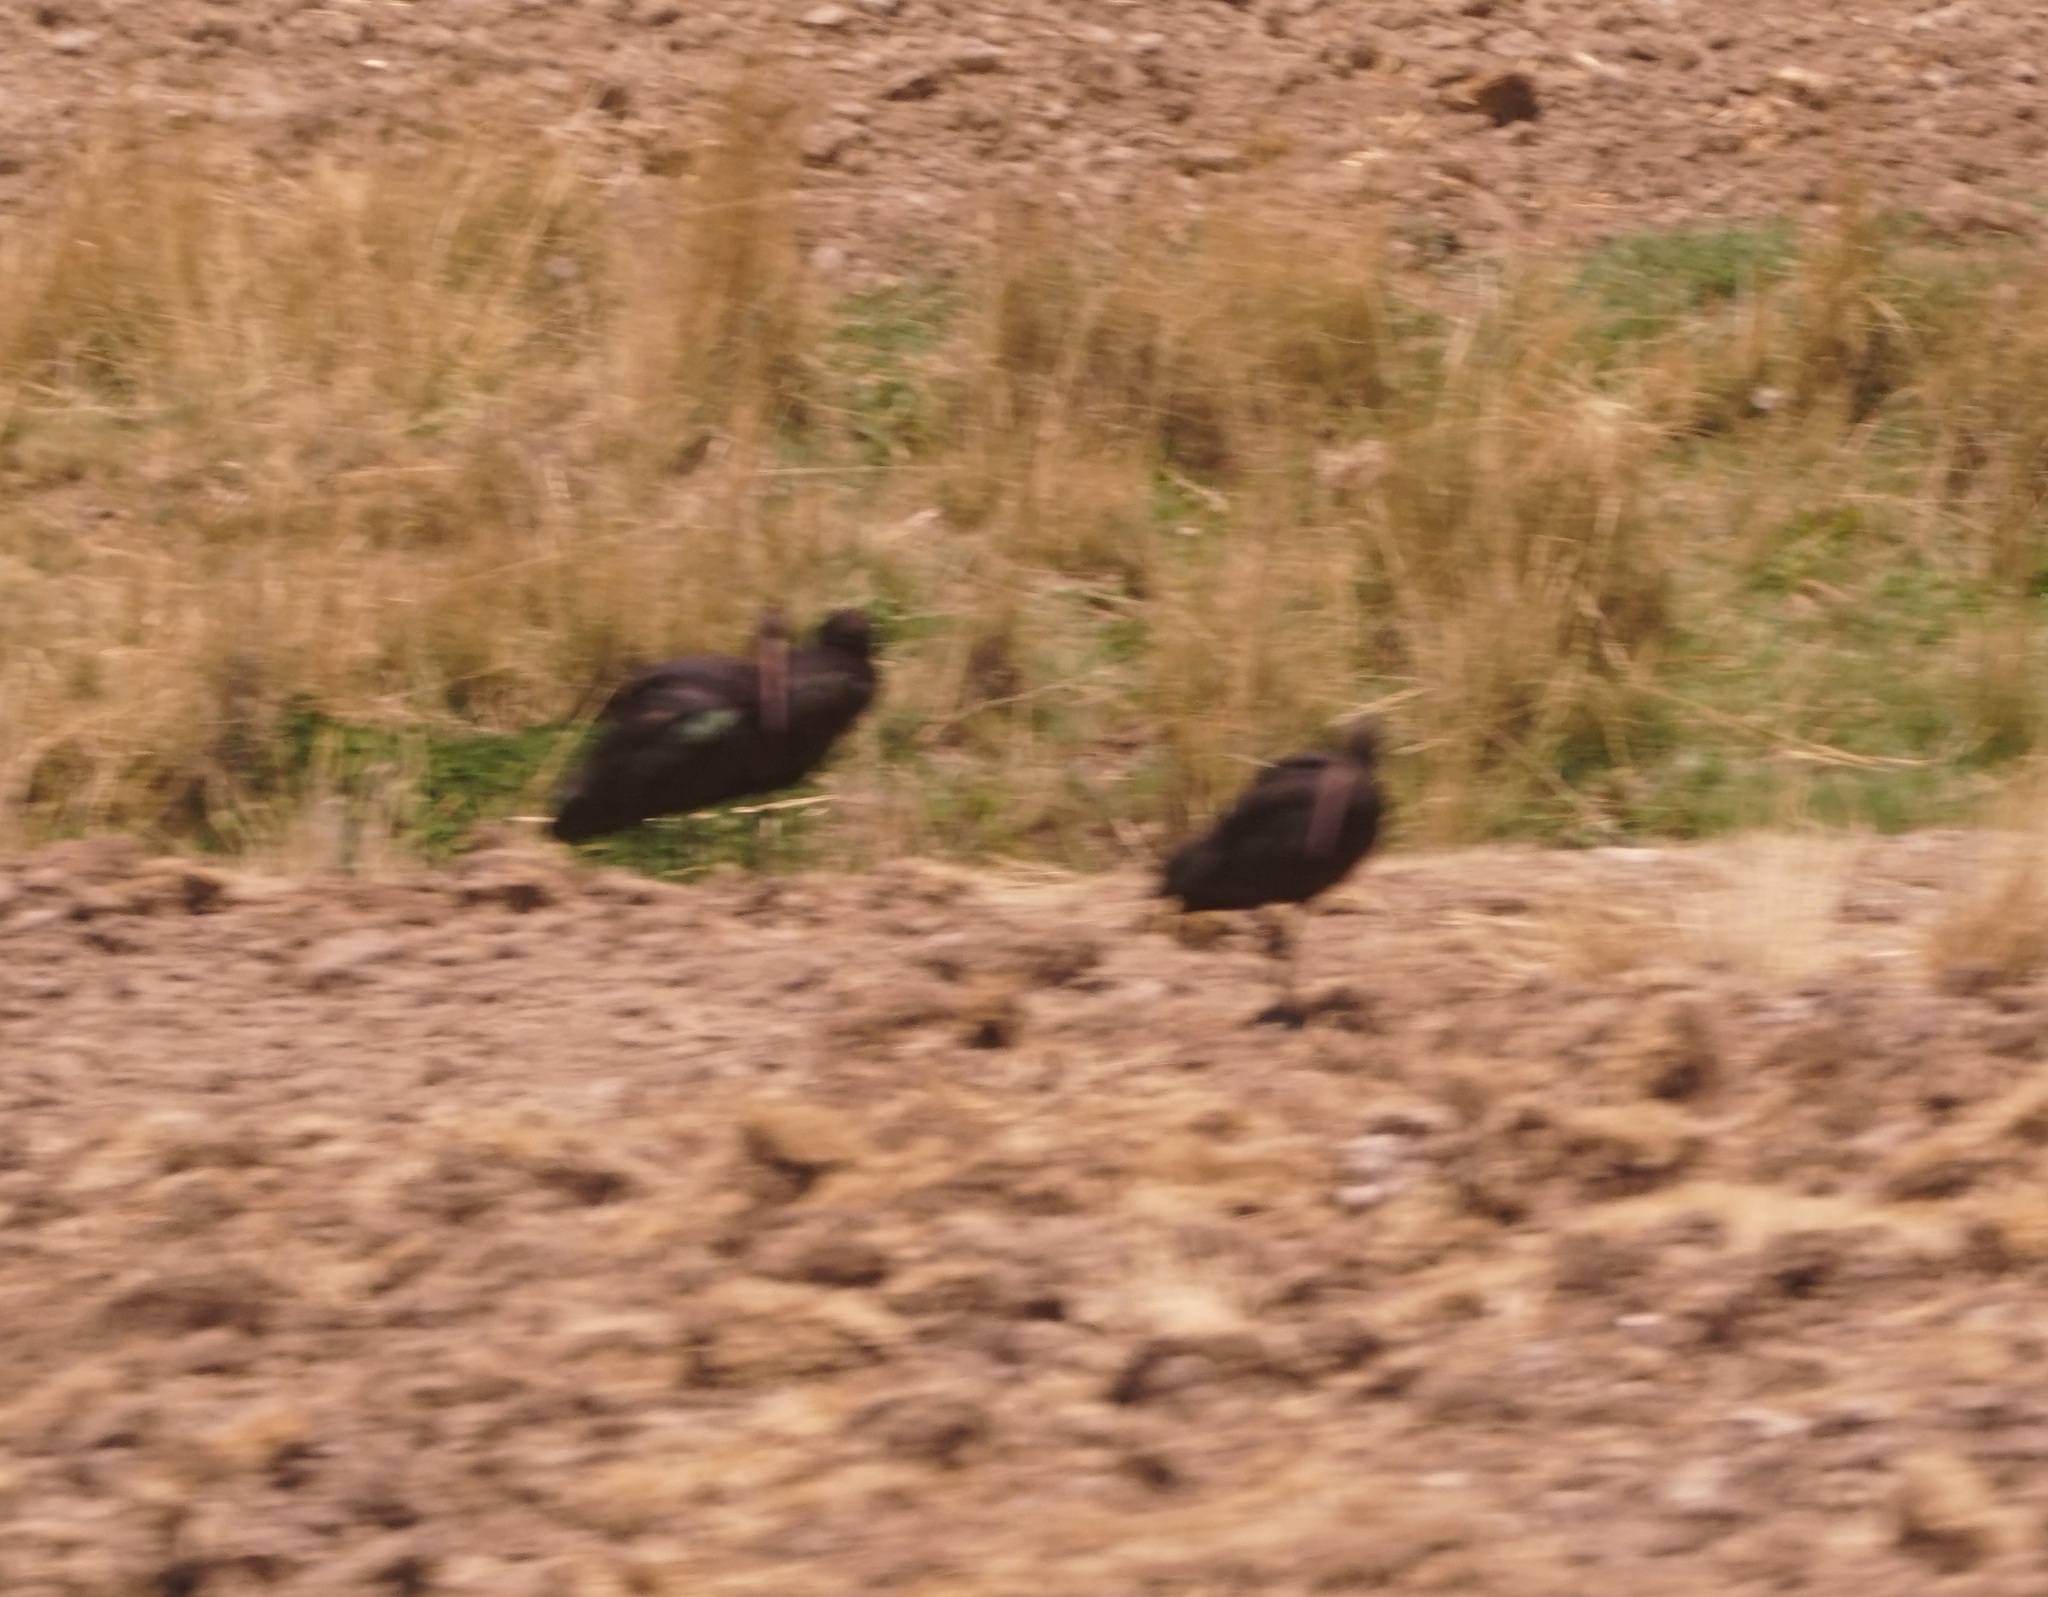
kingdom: Animalia
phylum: Chordata
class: Aves
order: Pelecaniformes
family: Threskiornithidae
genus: Plegadis
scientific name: Plegadis ridgwayi
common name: Puna ibis
